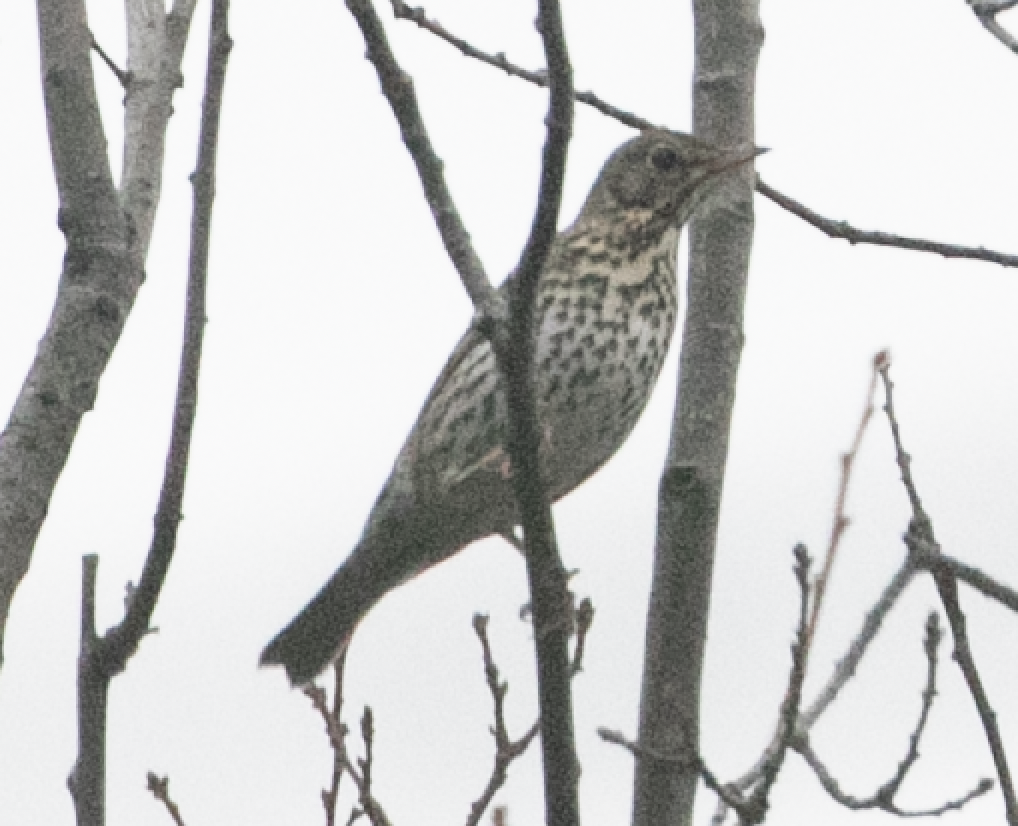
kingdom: Animalia
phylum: Chordata
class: Aves
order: Passeriformes
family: Turdidae
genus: Turdus
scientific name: Turdus philomelos
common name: Song thrush
